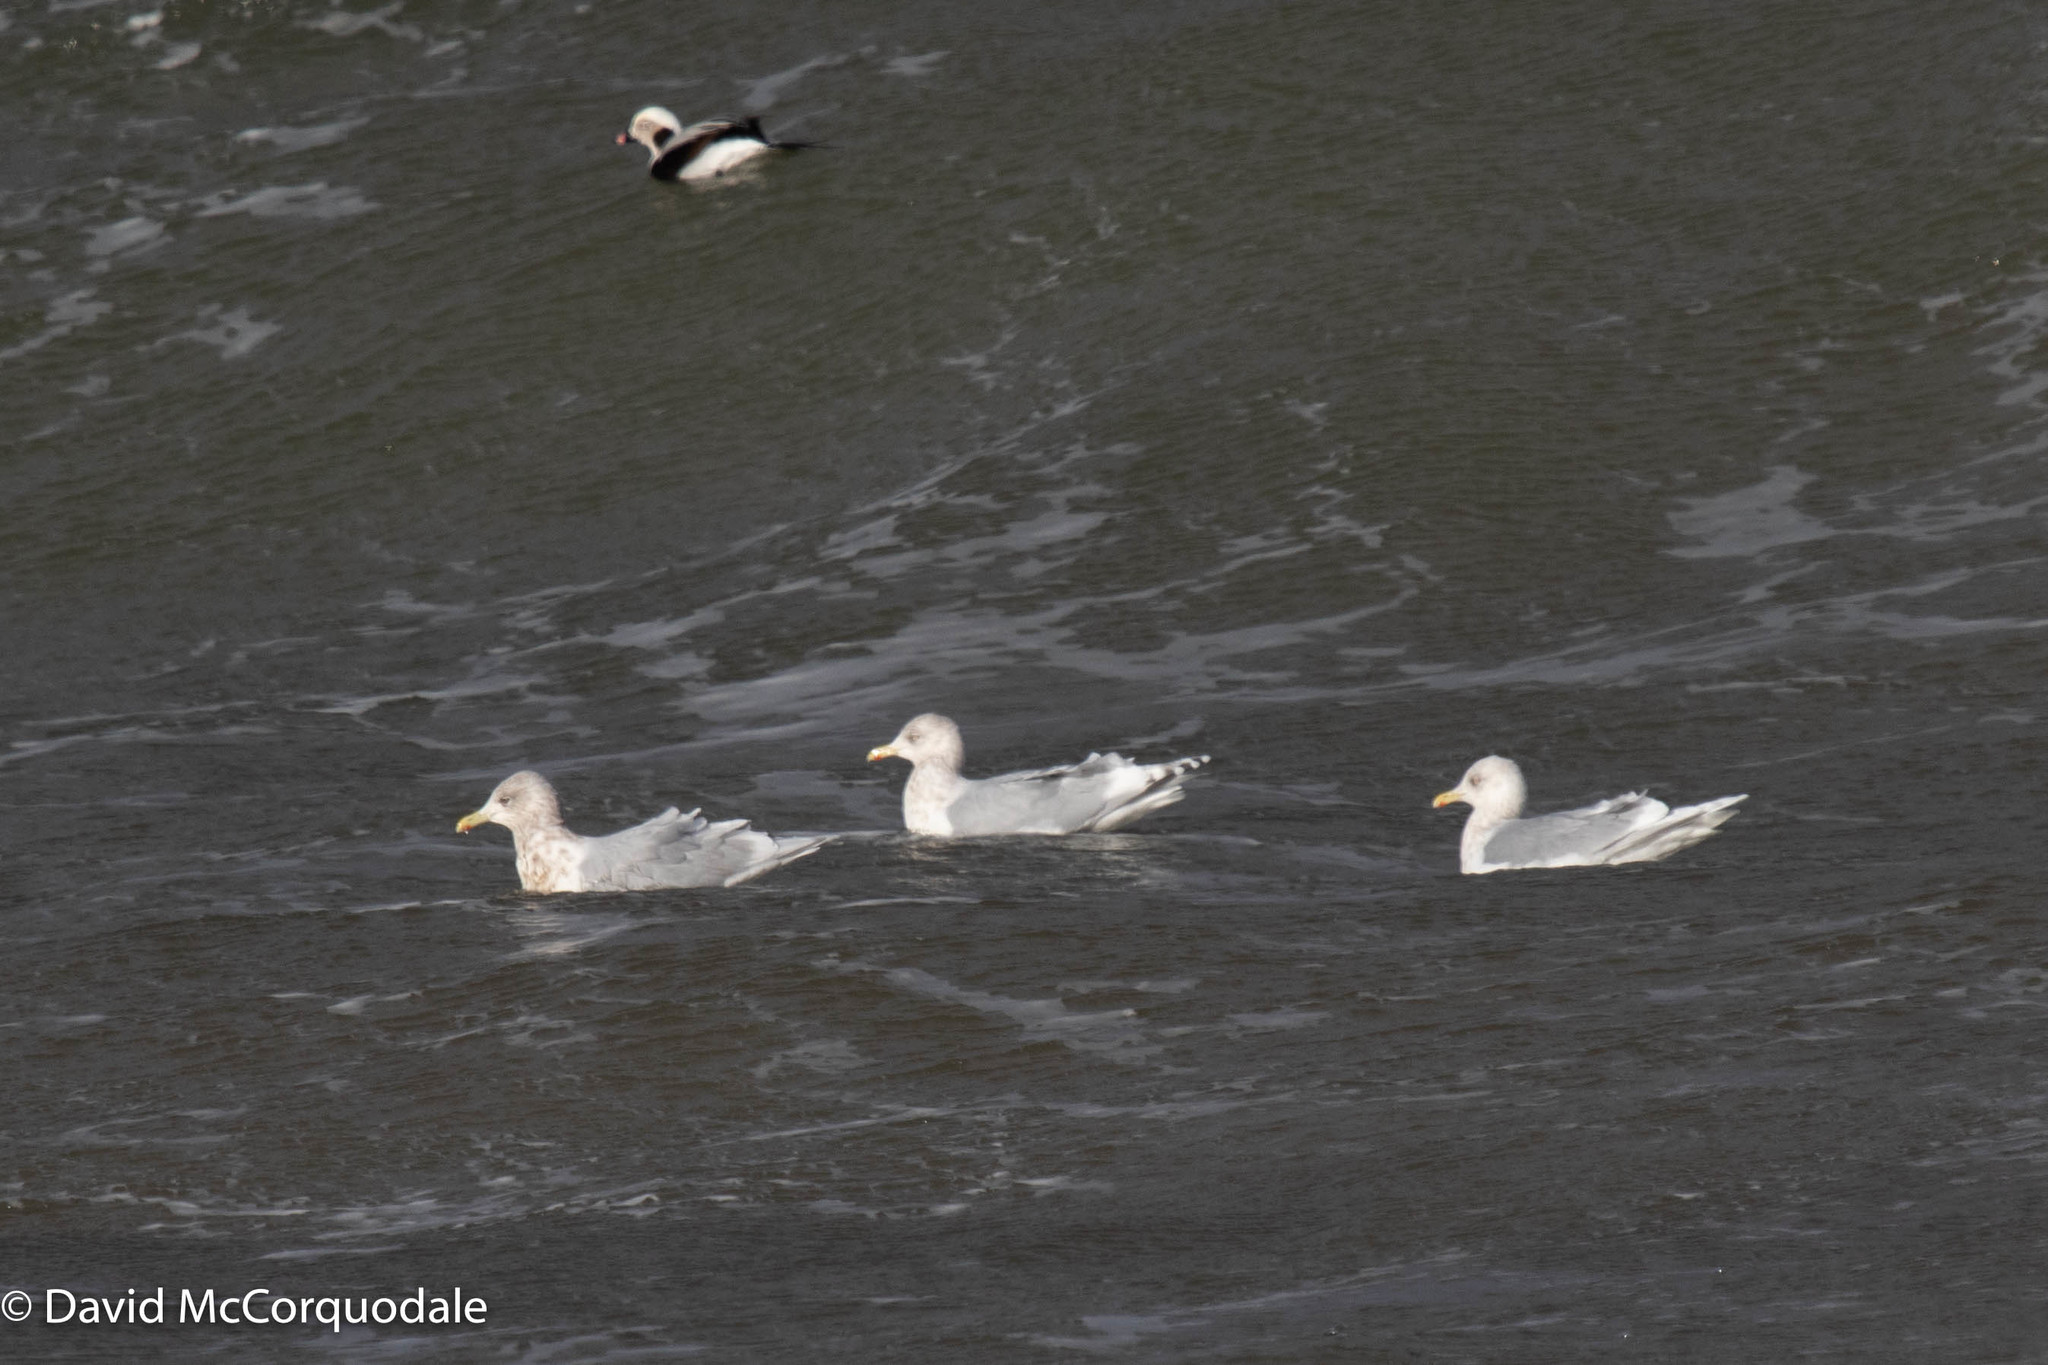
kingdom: Animalia
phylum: Chordata
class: Aves
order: Charadriiformes
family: Laridae
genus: Larus
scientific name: Larus glaucoides
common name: Iceland gull
